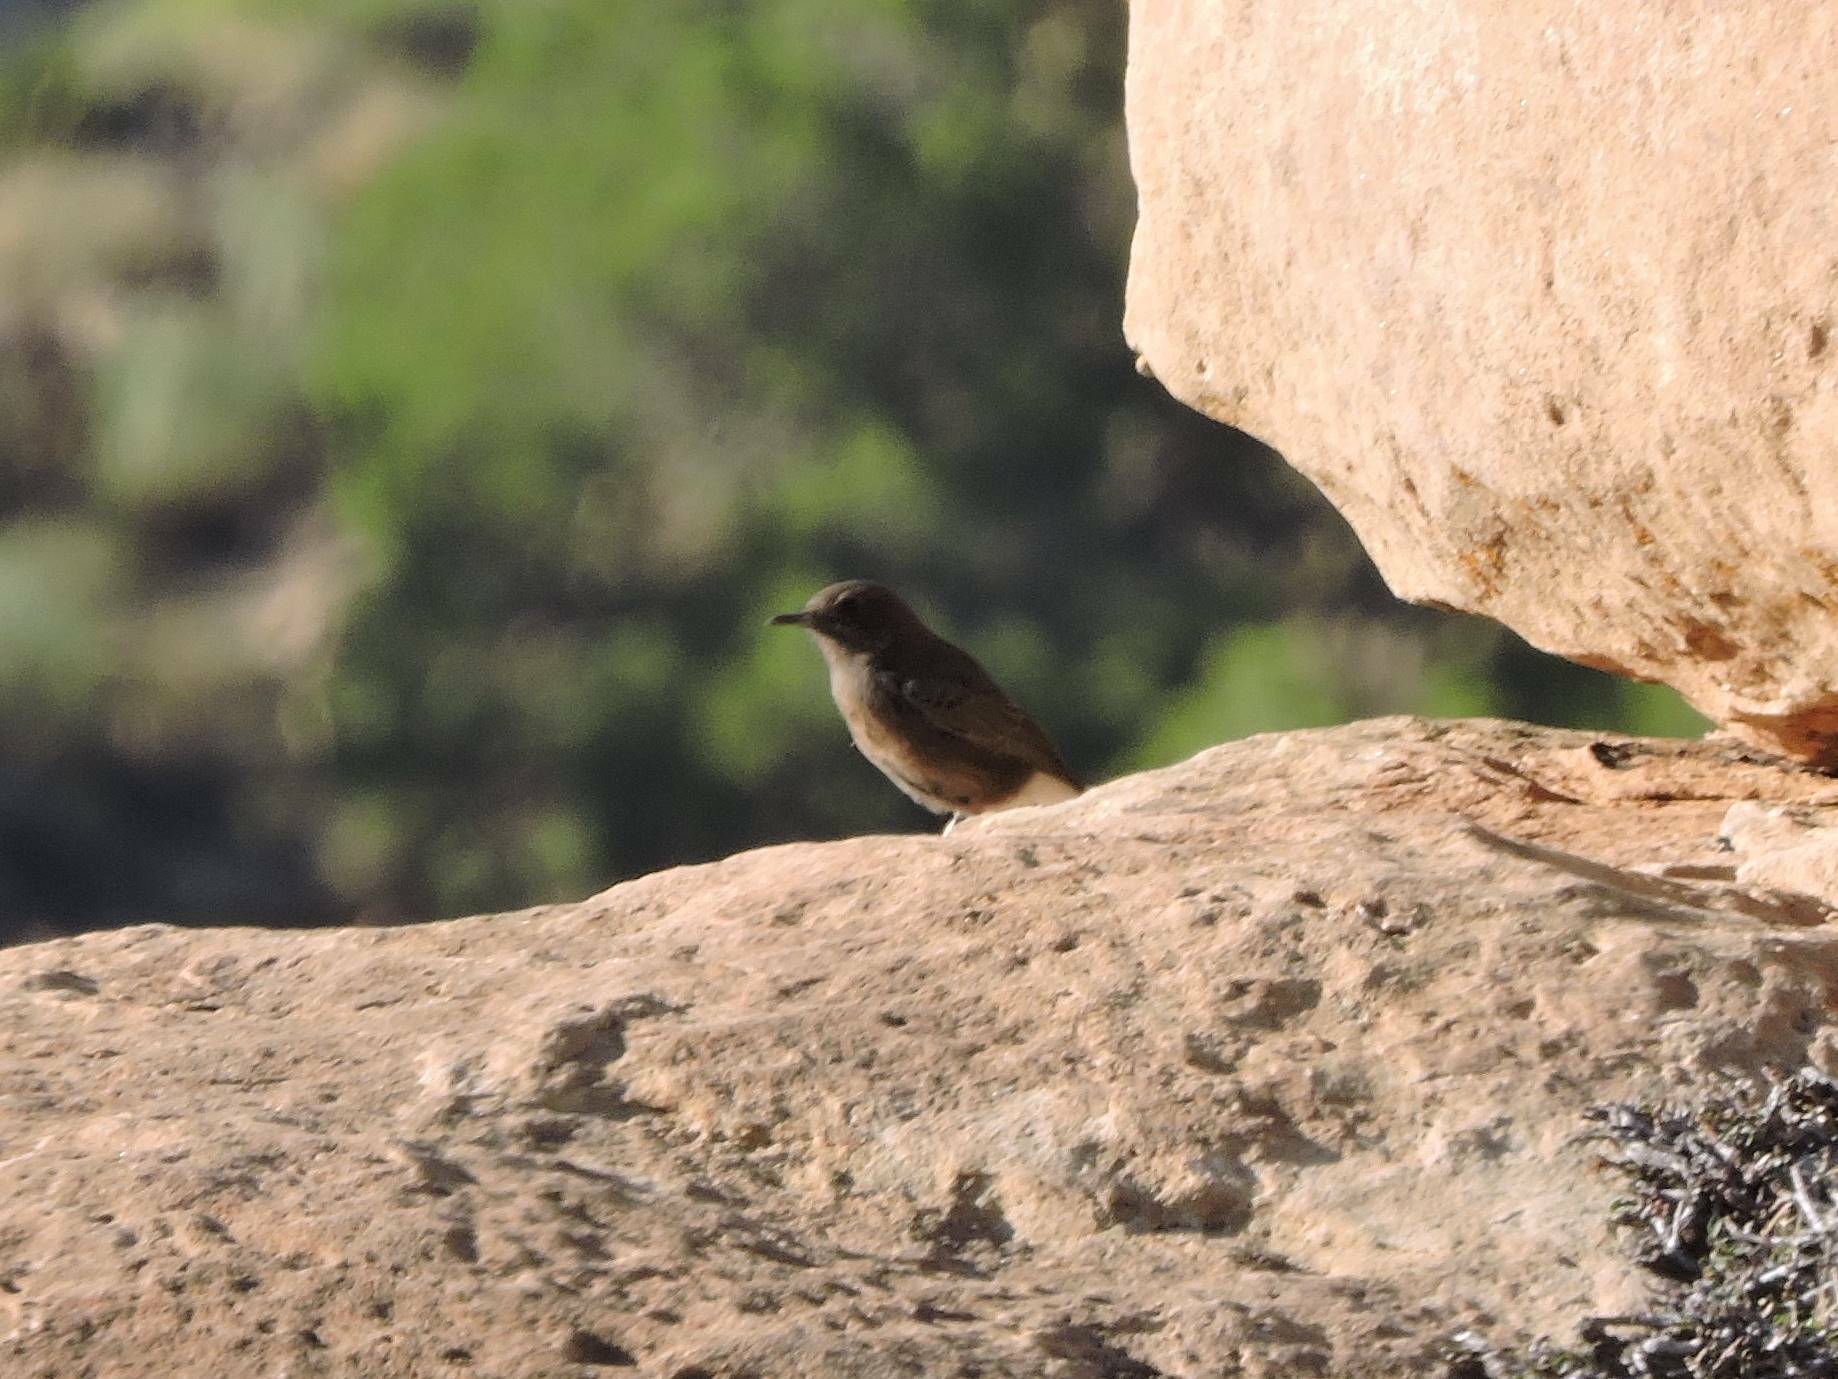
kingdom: Animalia
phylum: Chordata
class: Aves
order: Passeriformes
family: Muscicapidae
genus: Oenanthe
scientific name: Oenanthe leucura
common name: Black wheatear
